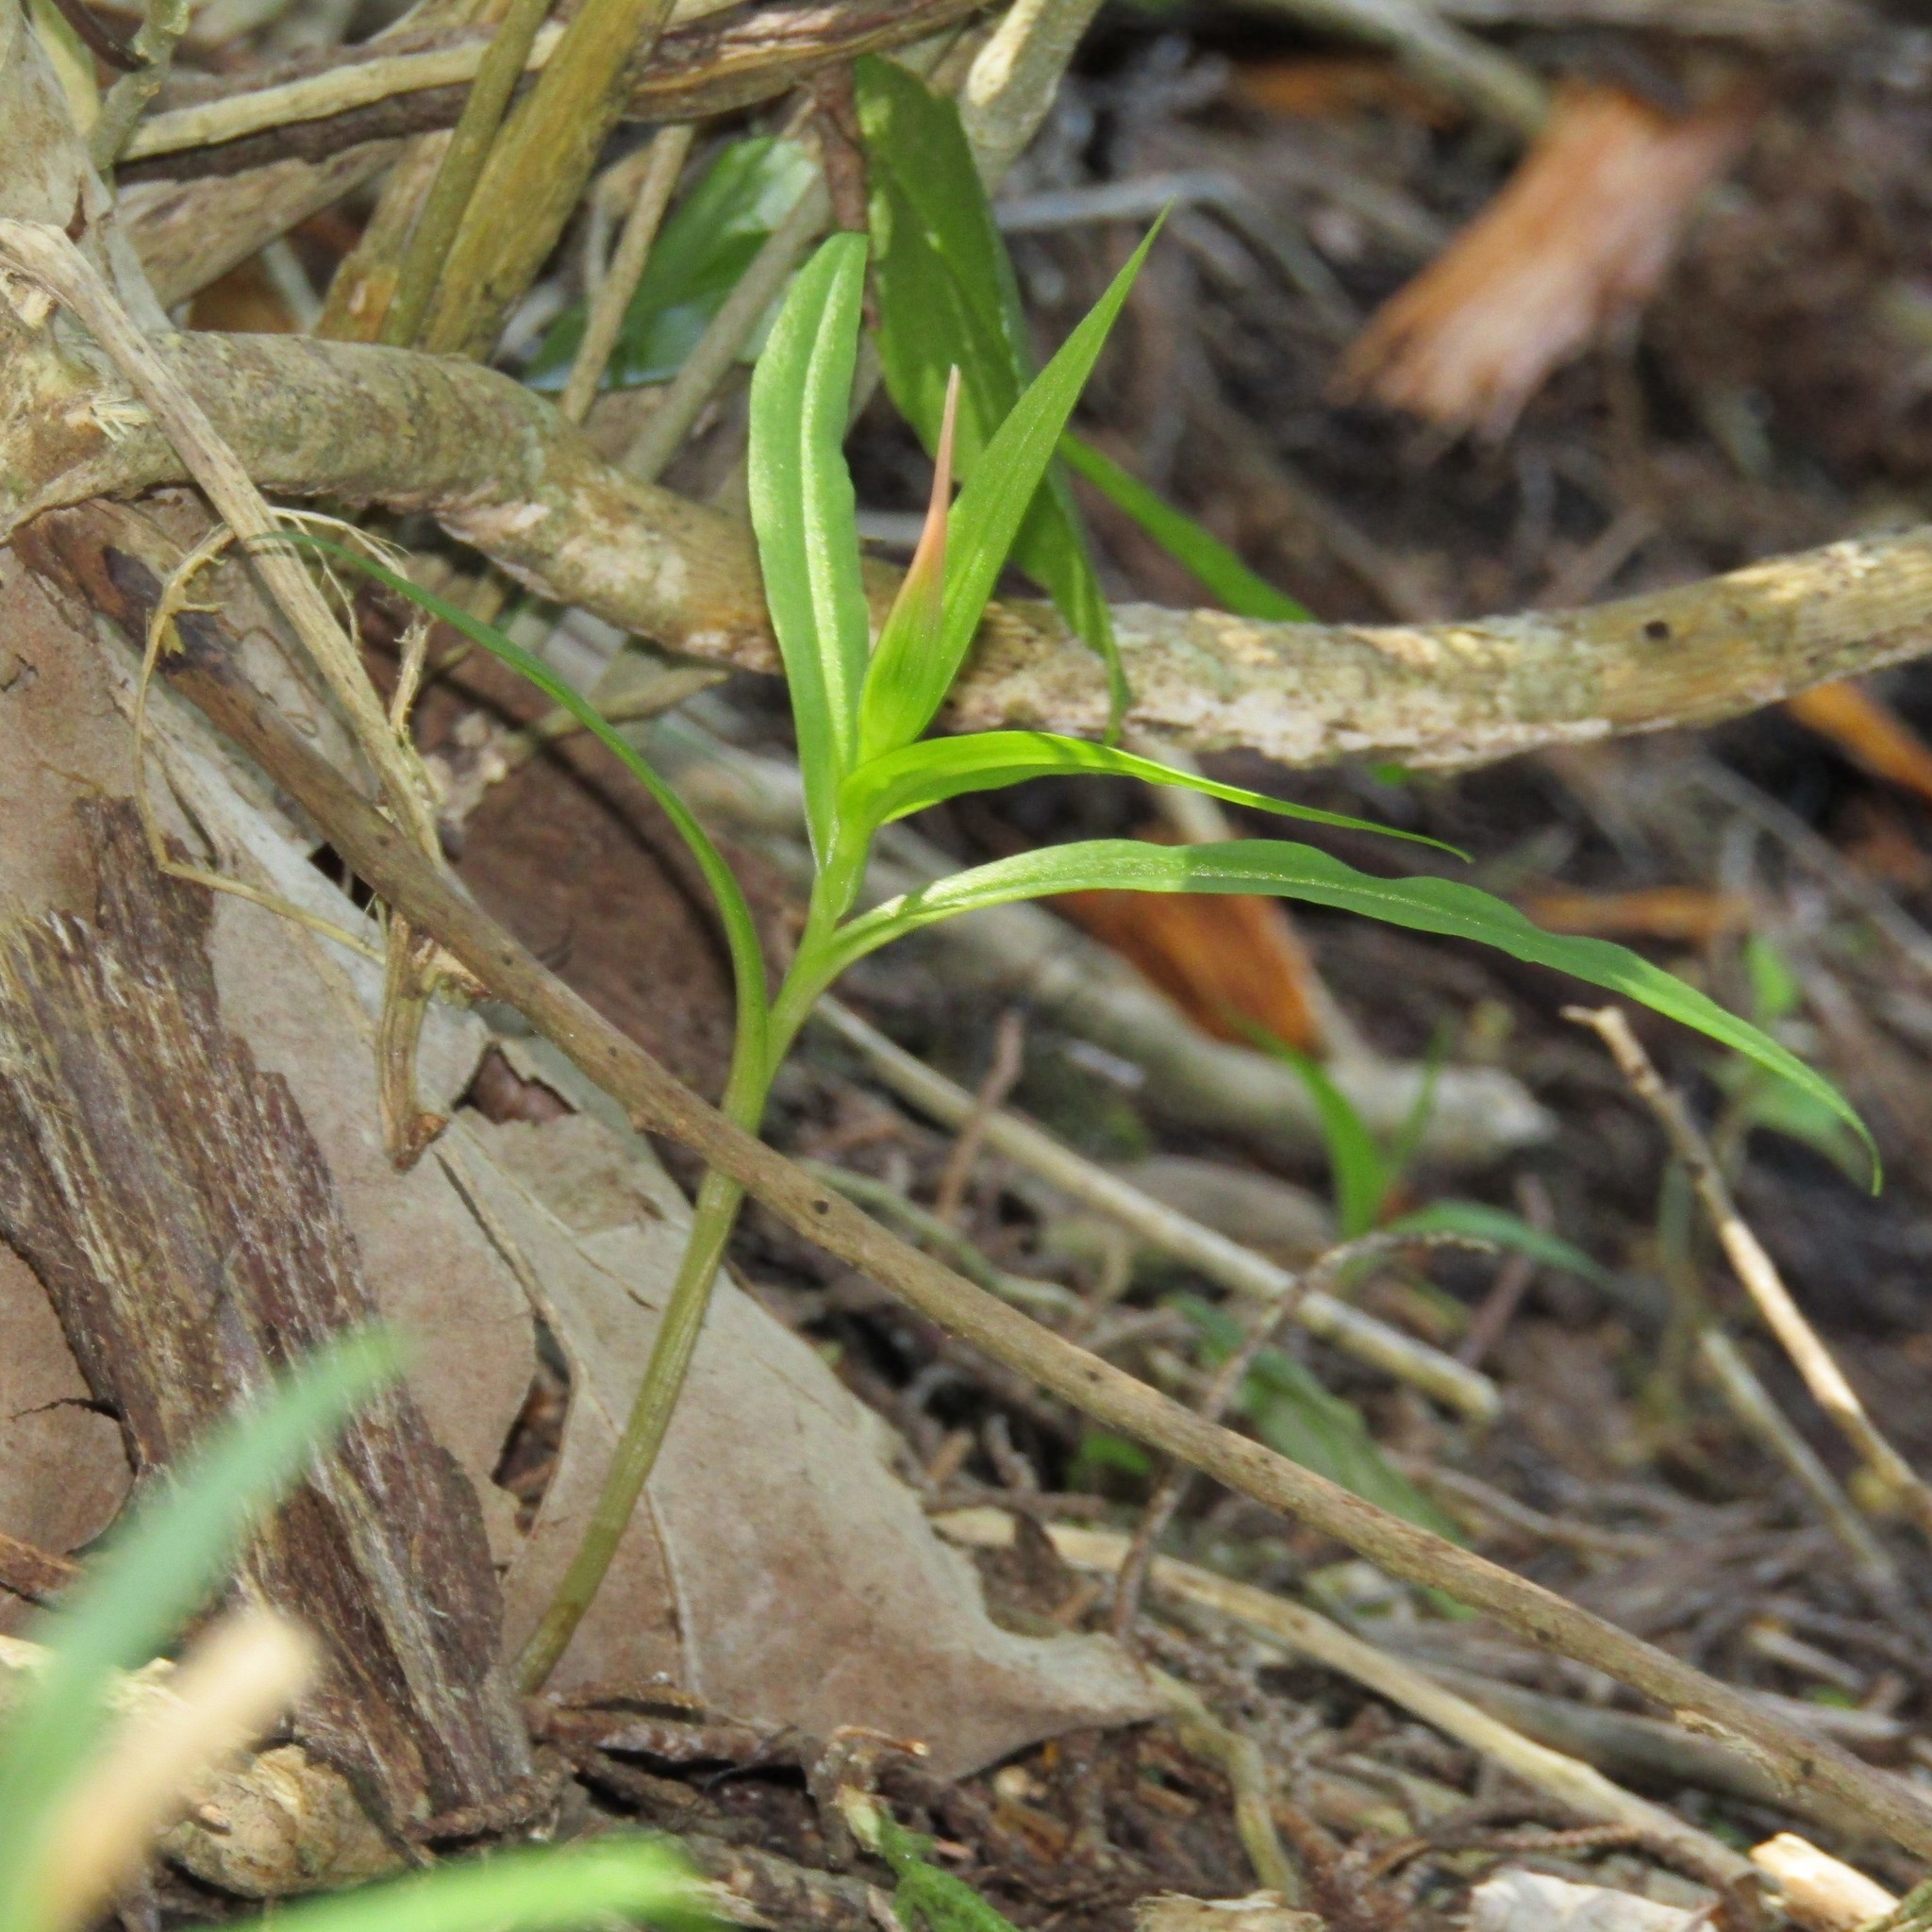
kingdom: Plantae
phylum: Tracheophyta
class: Liliopsida
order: Asparagales
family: Orchidaceae
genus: Pterostylis
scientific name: Pterostylis banksii
